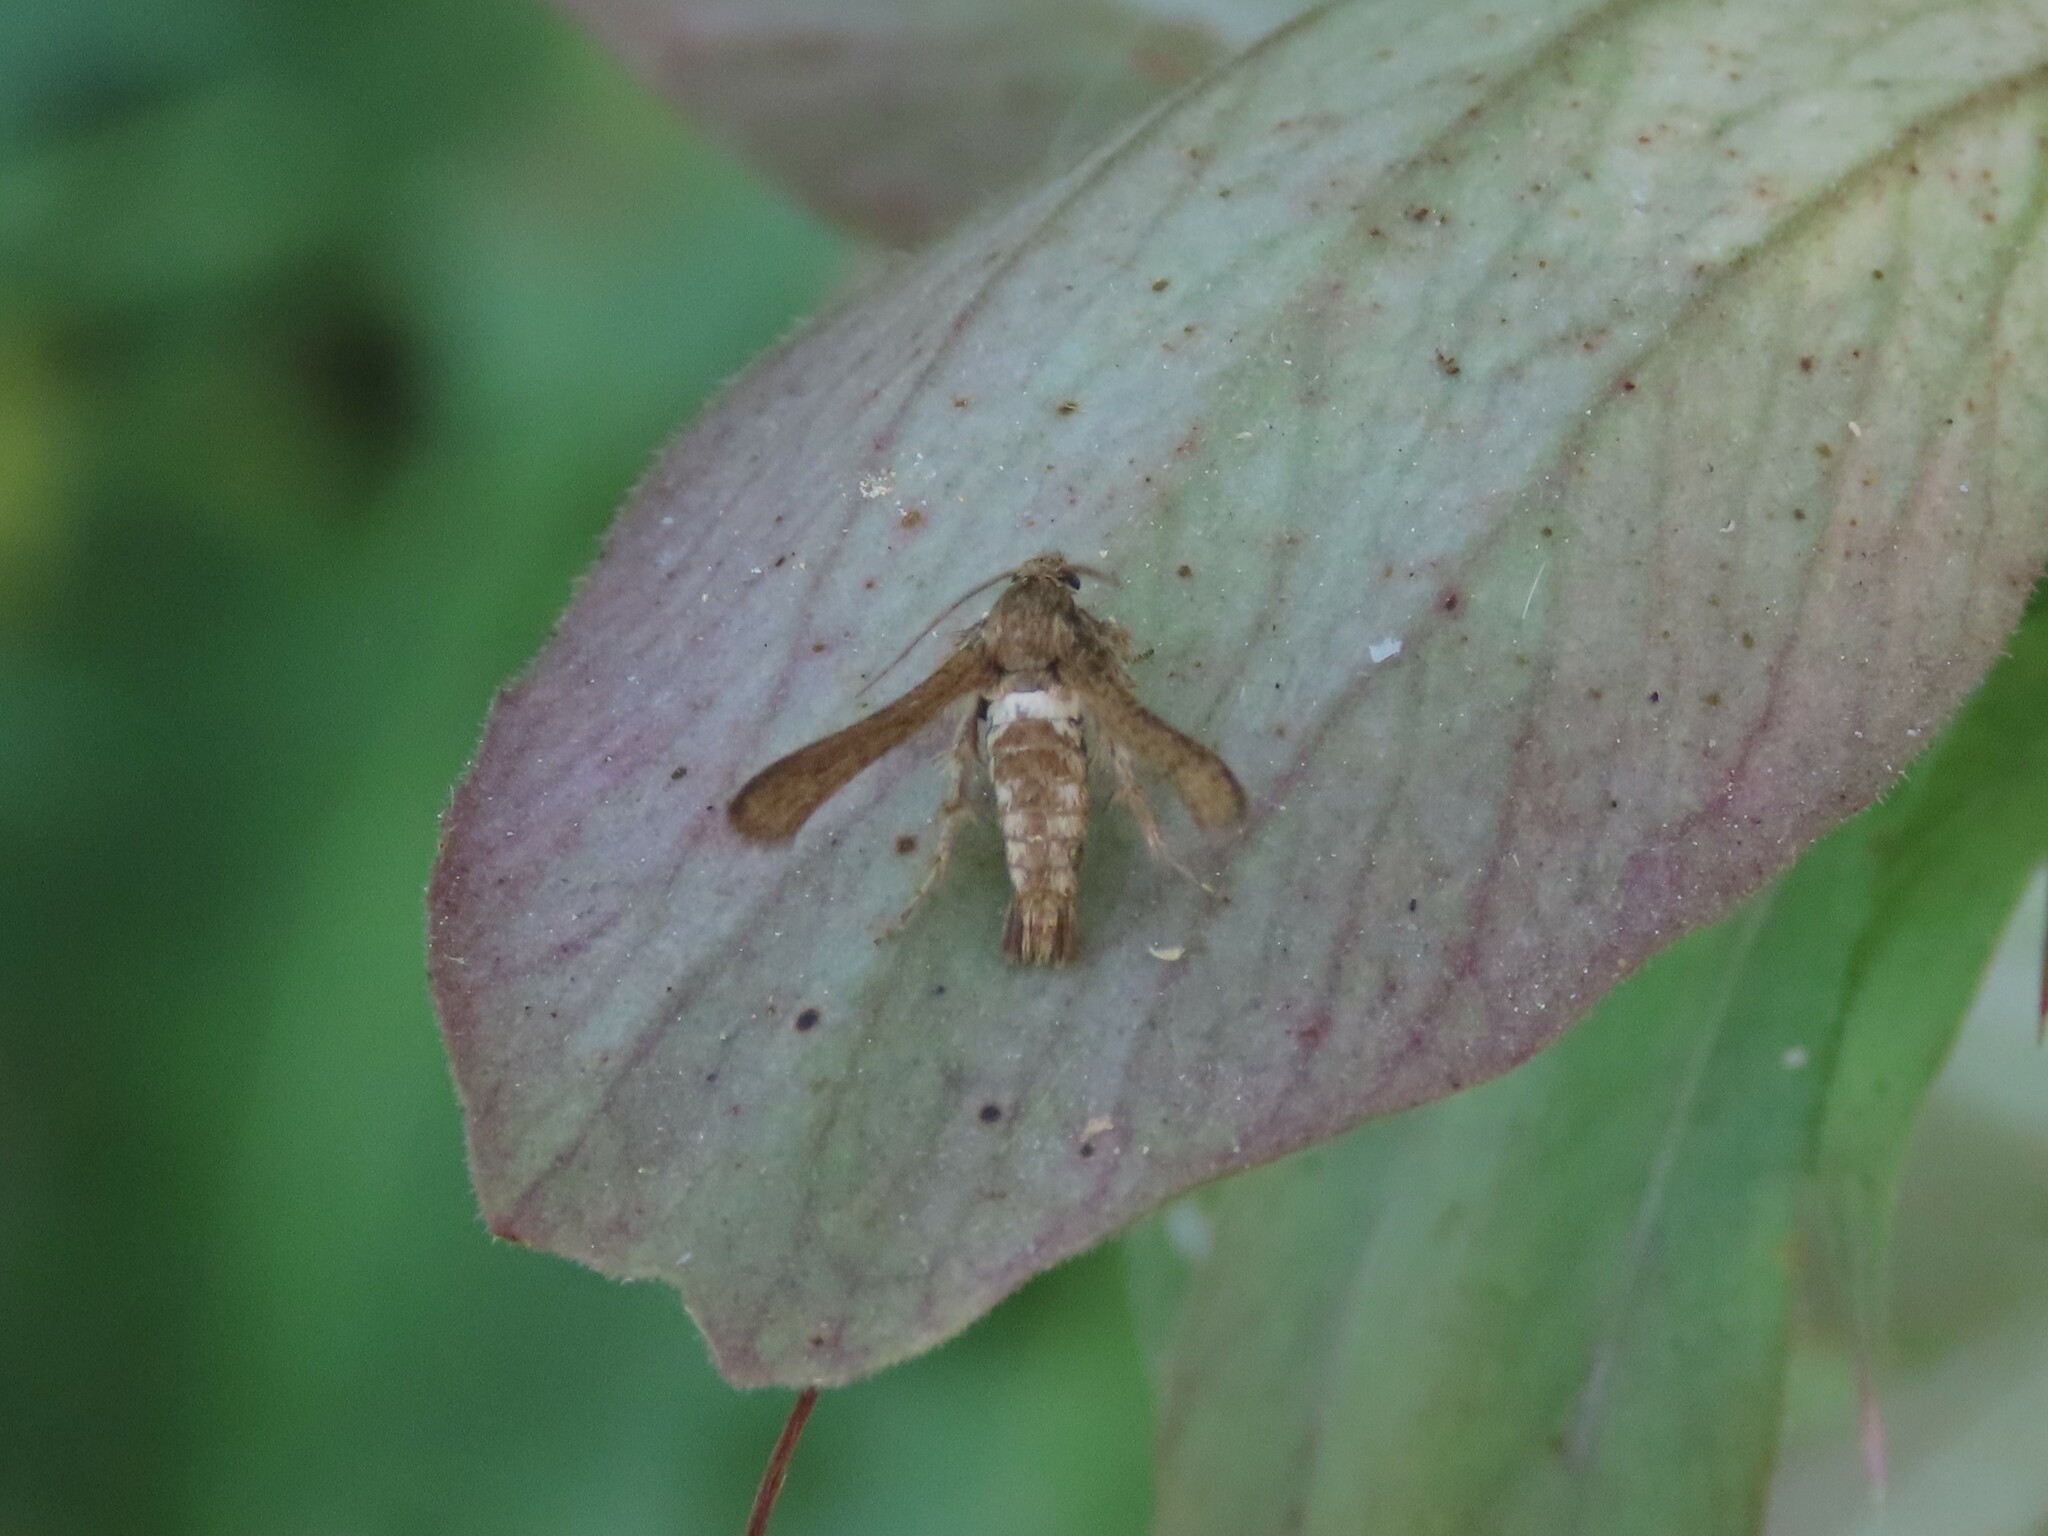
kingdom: Animalia
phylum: Arthropoda
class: Insecta
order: Lepidoptera
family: Sesiidae
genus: Microsphecia
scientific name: Microsphecia tineiformis
